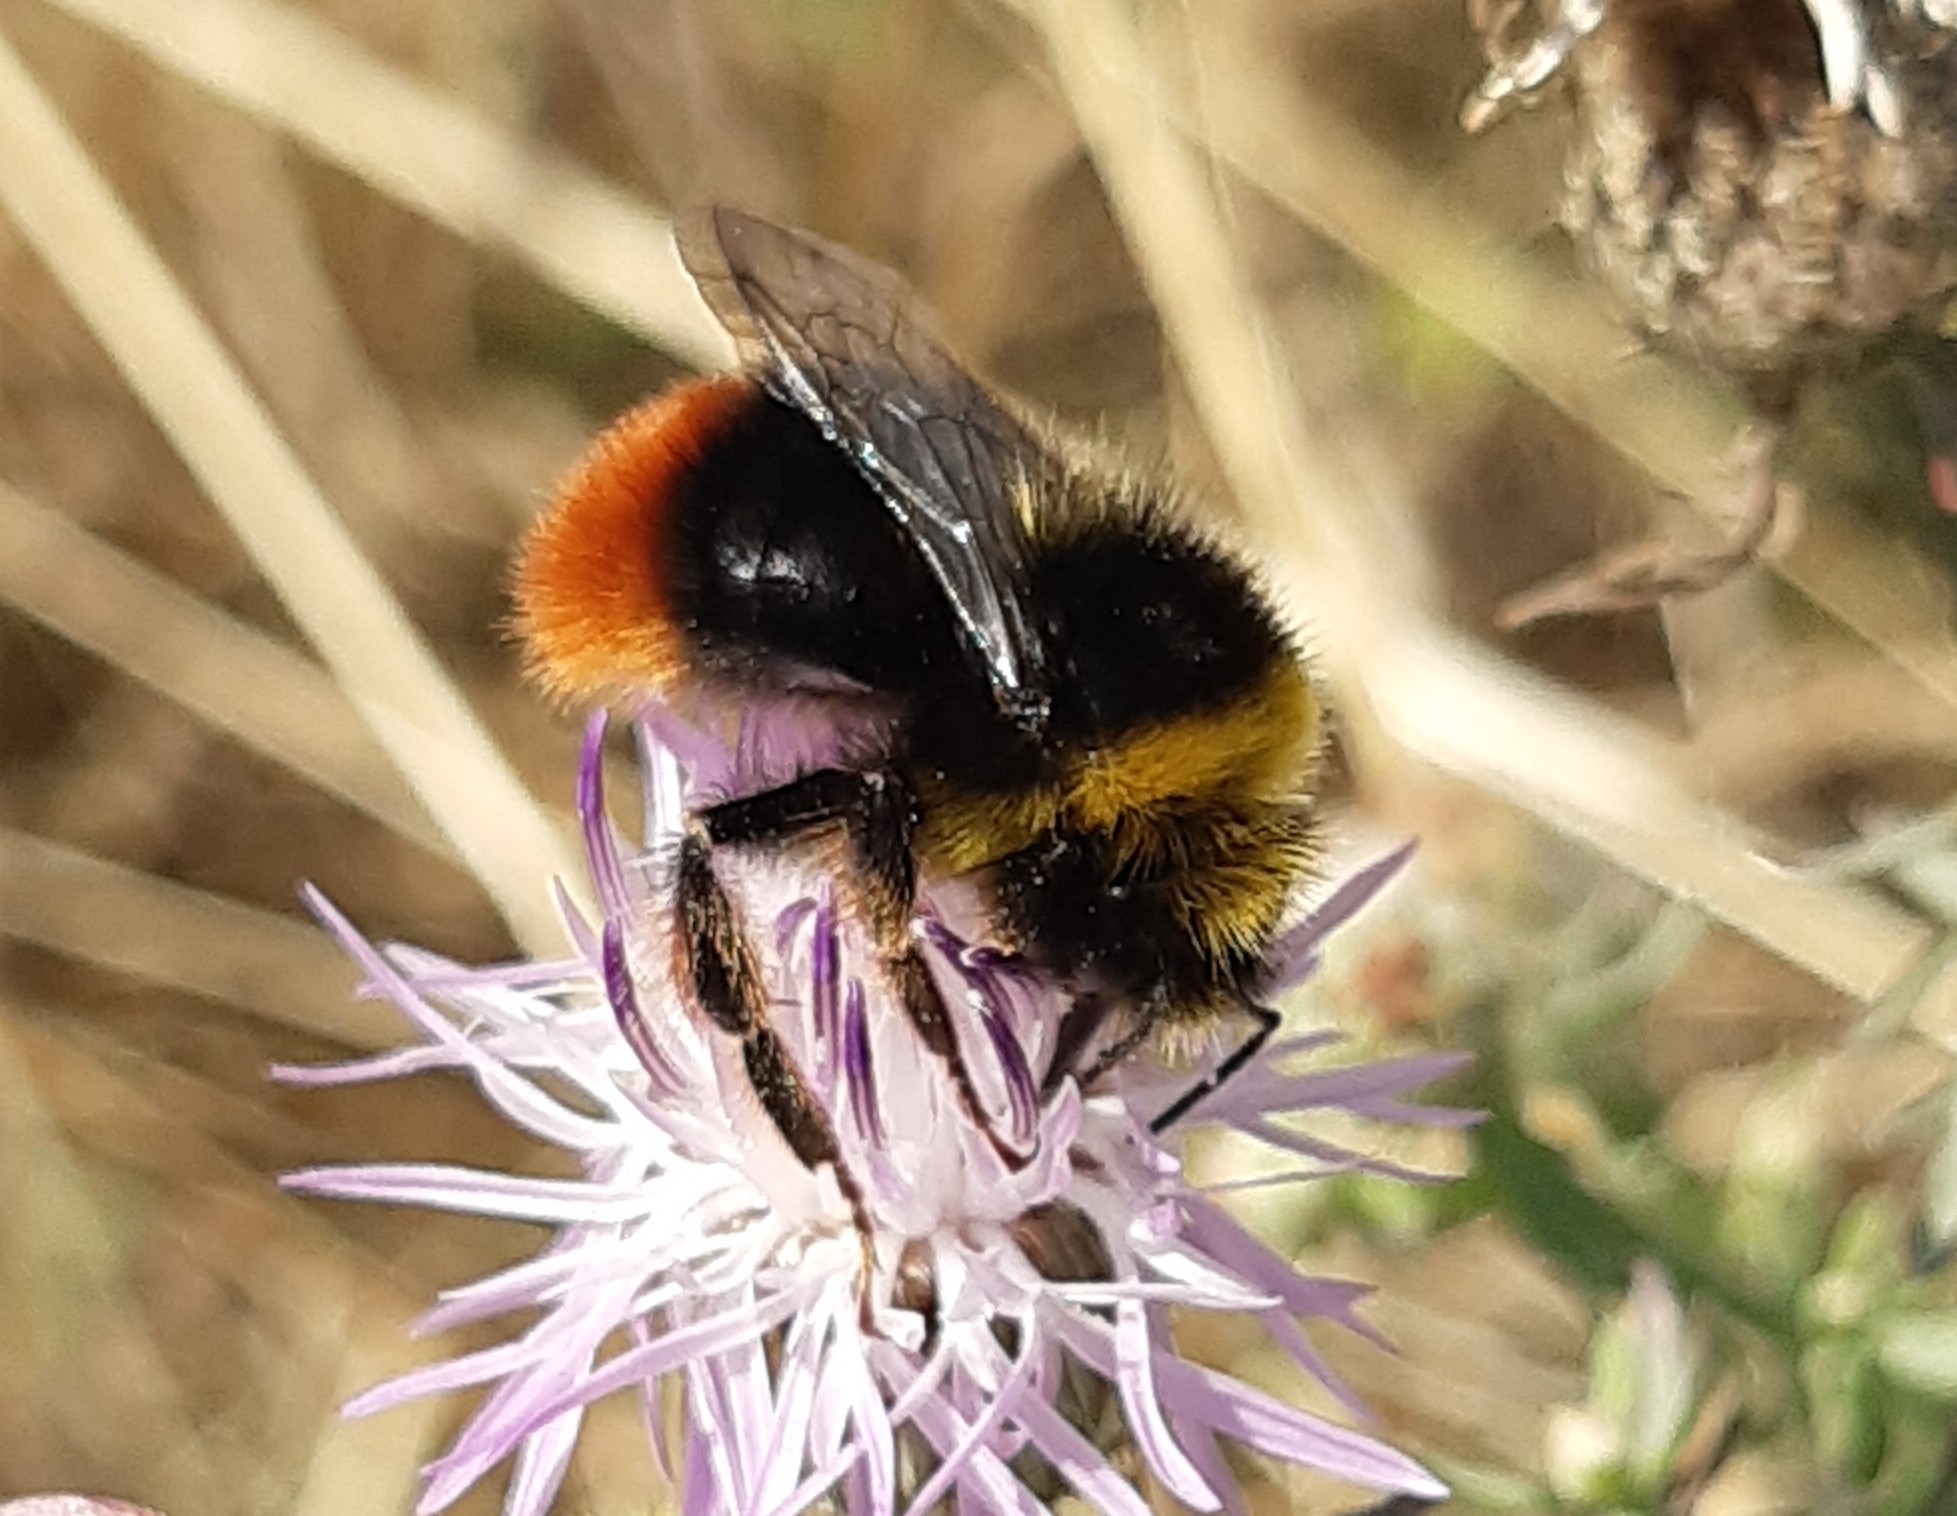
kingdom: Animalia
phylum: Arthropoda
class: Insecta
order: Hymenoptera
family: Apidae
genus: Bombus
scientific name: Bombus lapidarius
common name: Large red-tailed humble-bee
